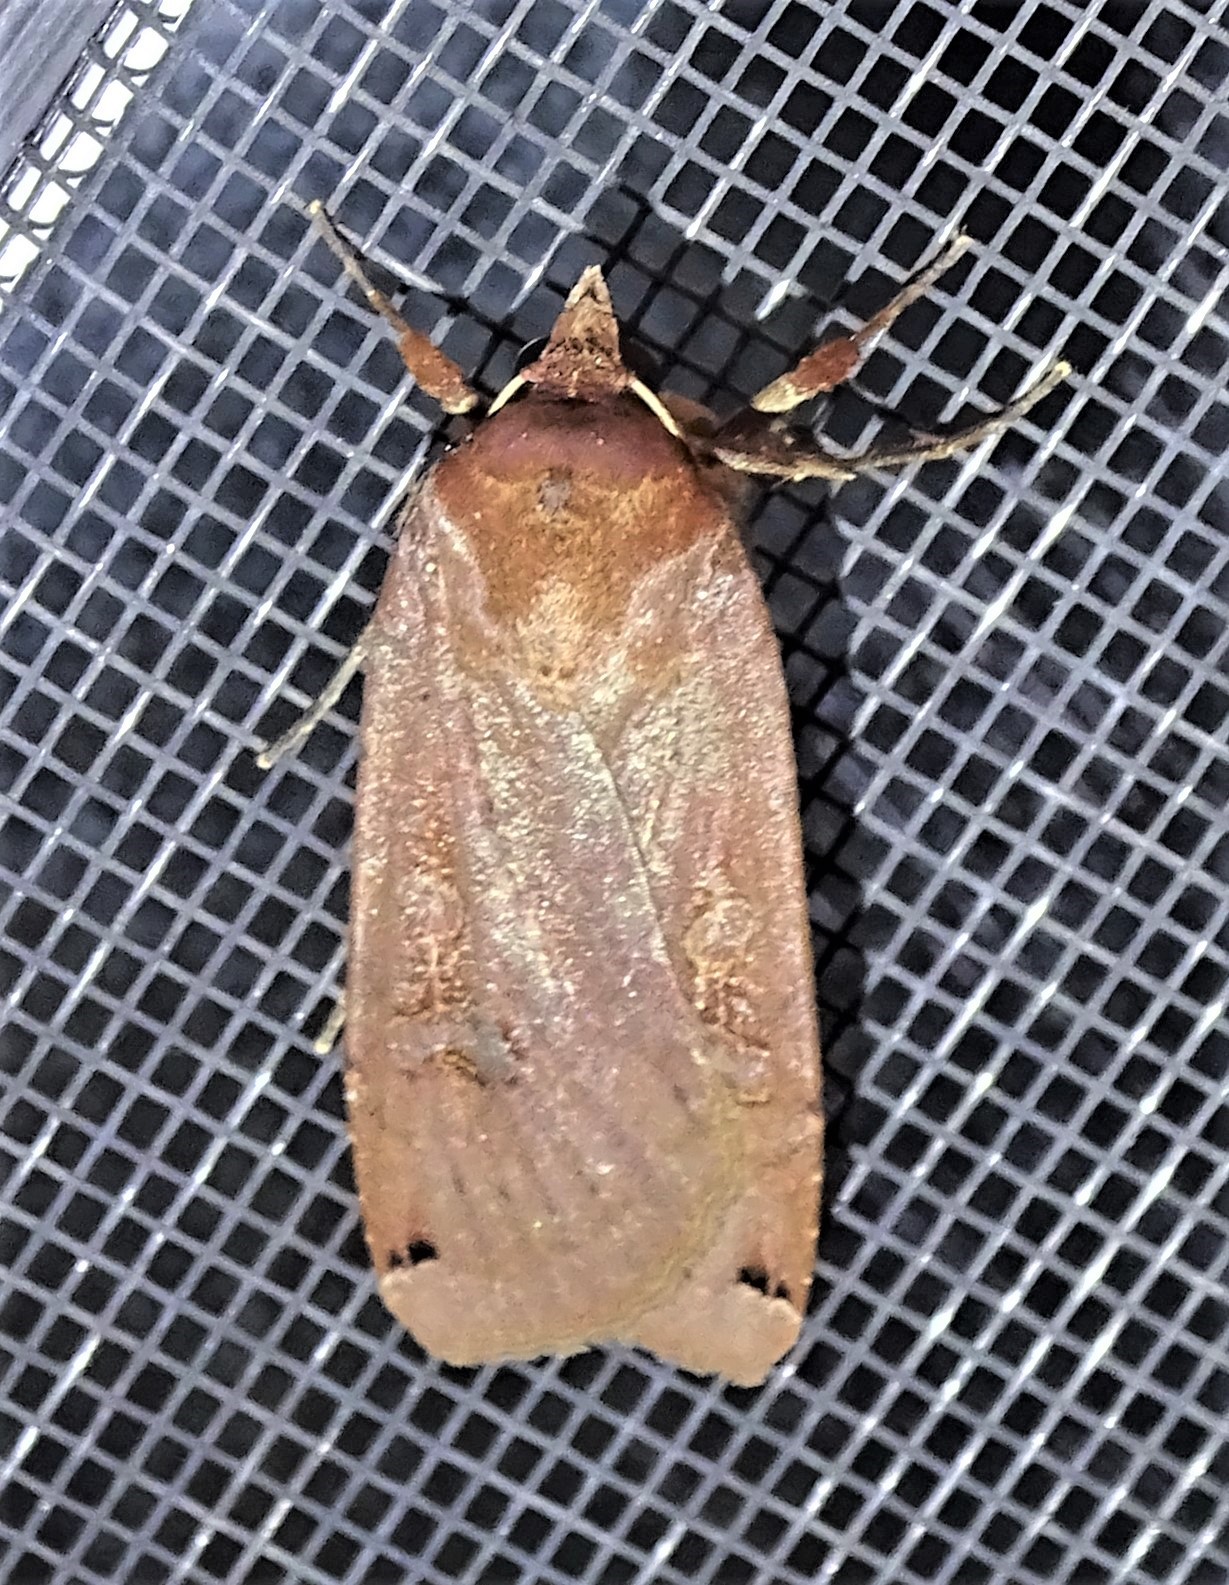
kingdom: Animalia
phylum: Arthropoda
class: Insecta
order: Lepidoptera
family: Noctuidae
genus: Noctua
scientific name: Noctua pronuba
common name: Large yellow underwing
